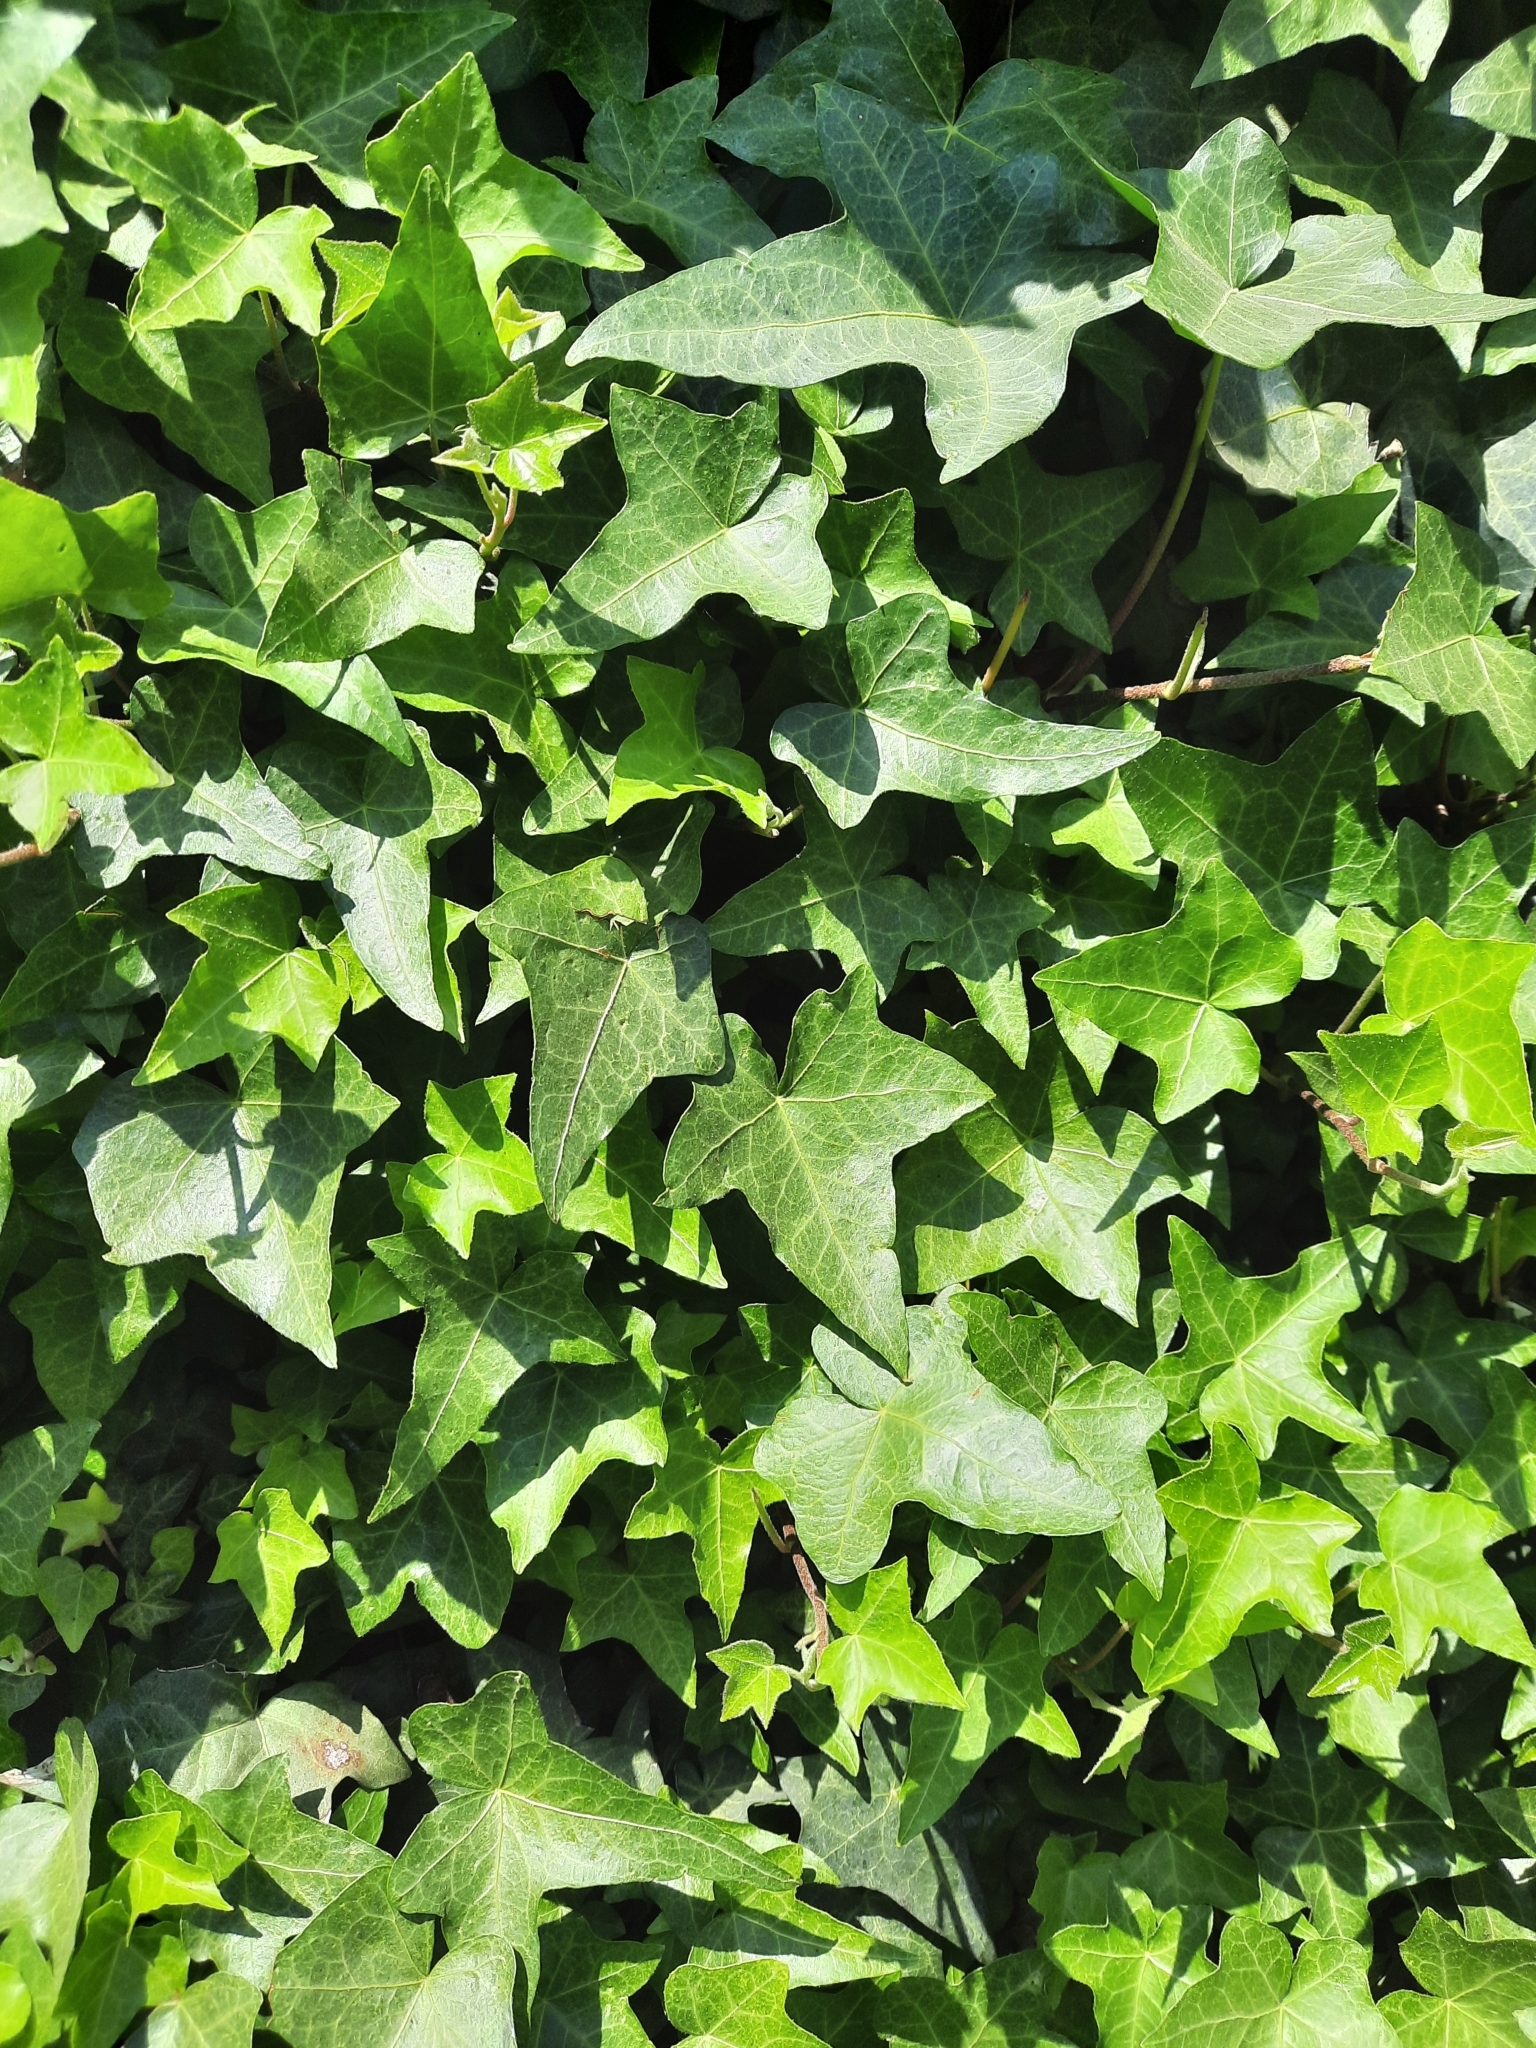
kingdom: Plantae
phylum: Tracheophyta
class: Magnoliopsida
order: Apiales
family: Araliaceae
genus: Hedera
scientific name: Hedera helix
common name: Ivy
